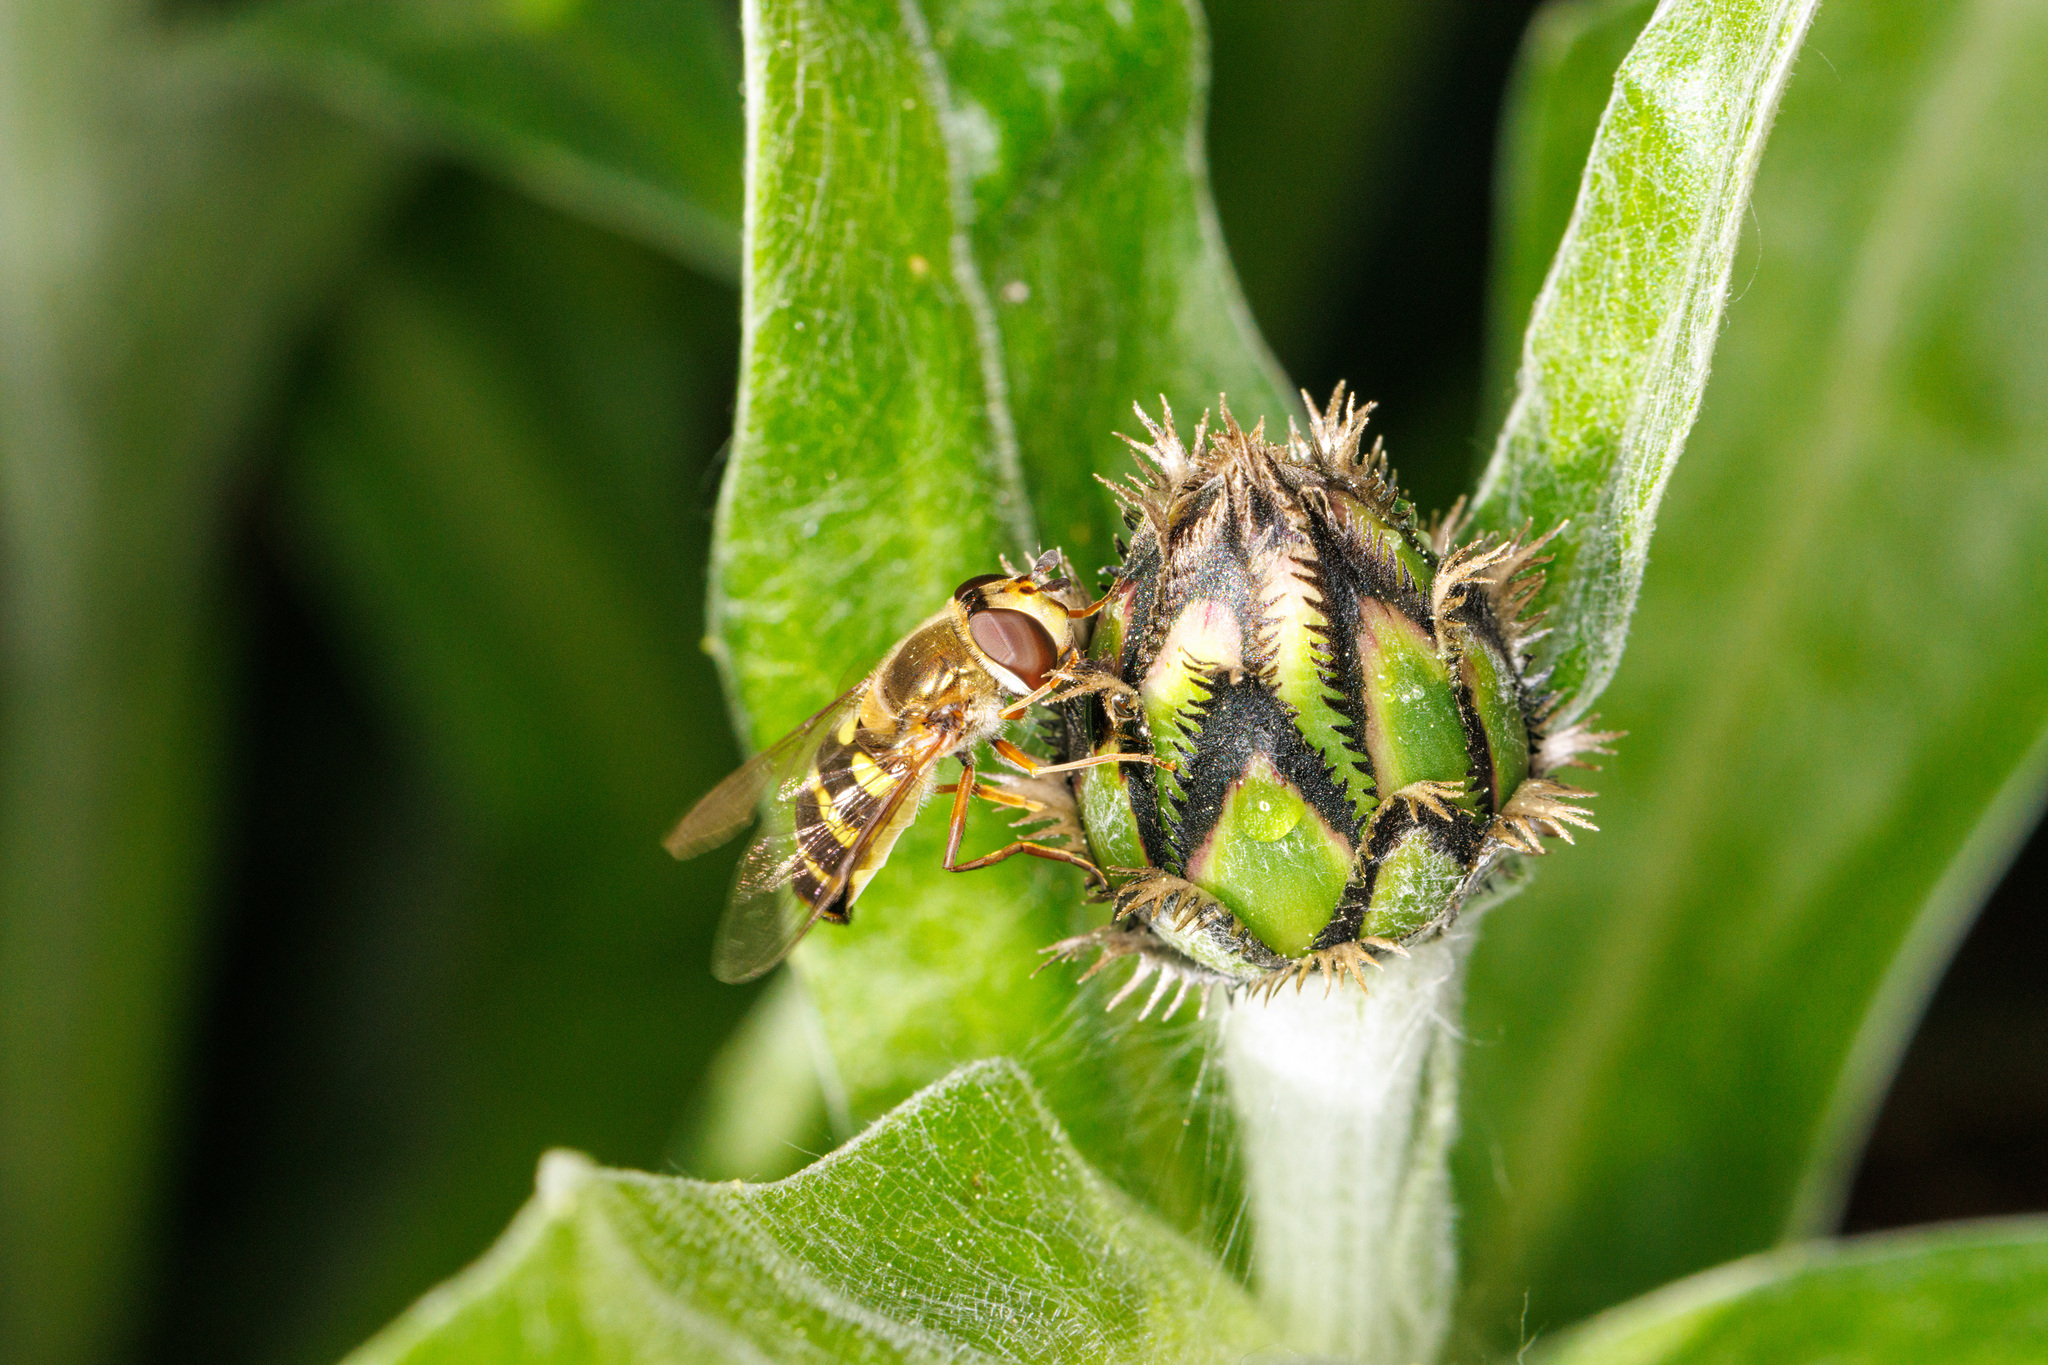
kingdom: Animalia
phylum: Arthropoda
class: Insecta
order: Diptera
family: Syrphidae
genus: Eupeodes
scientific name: Eupeodes fumipennis
